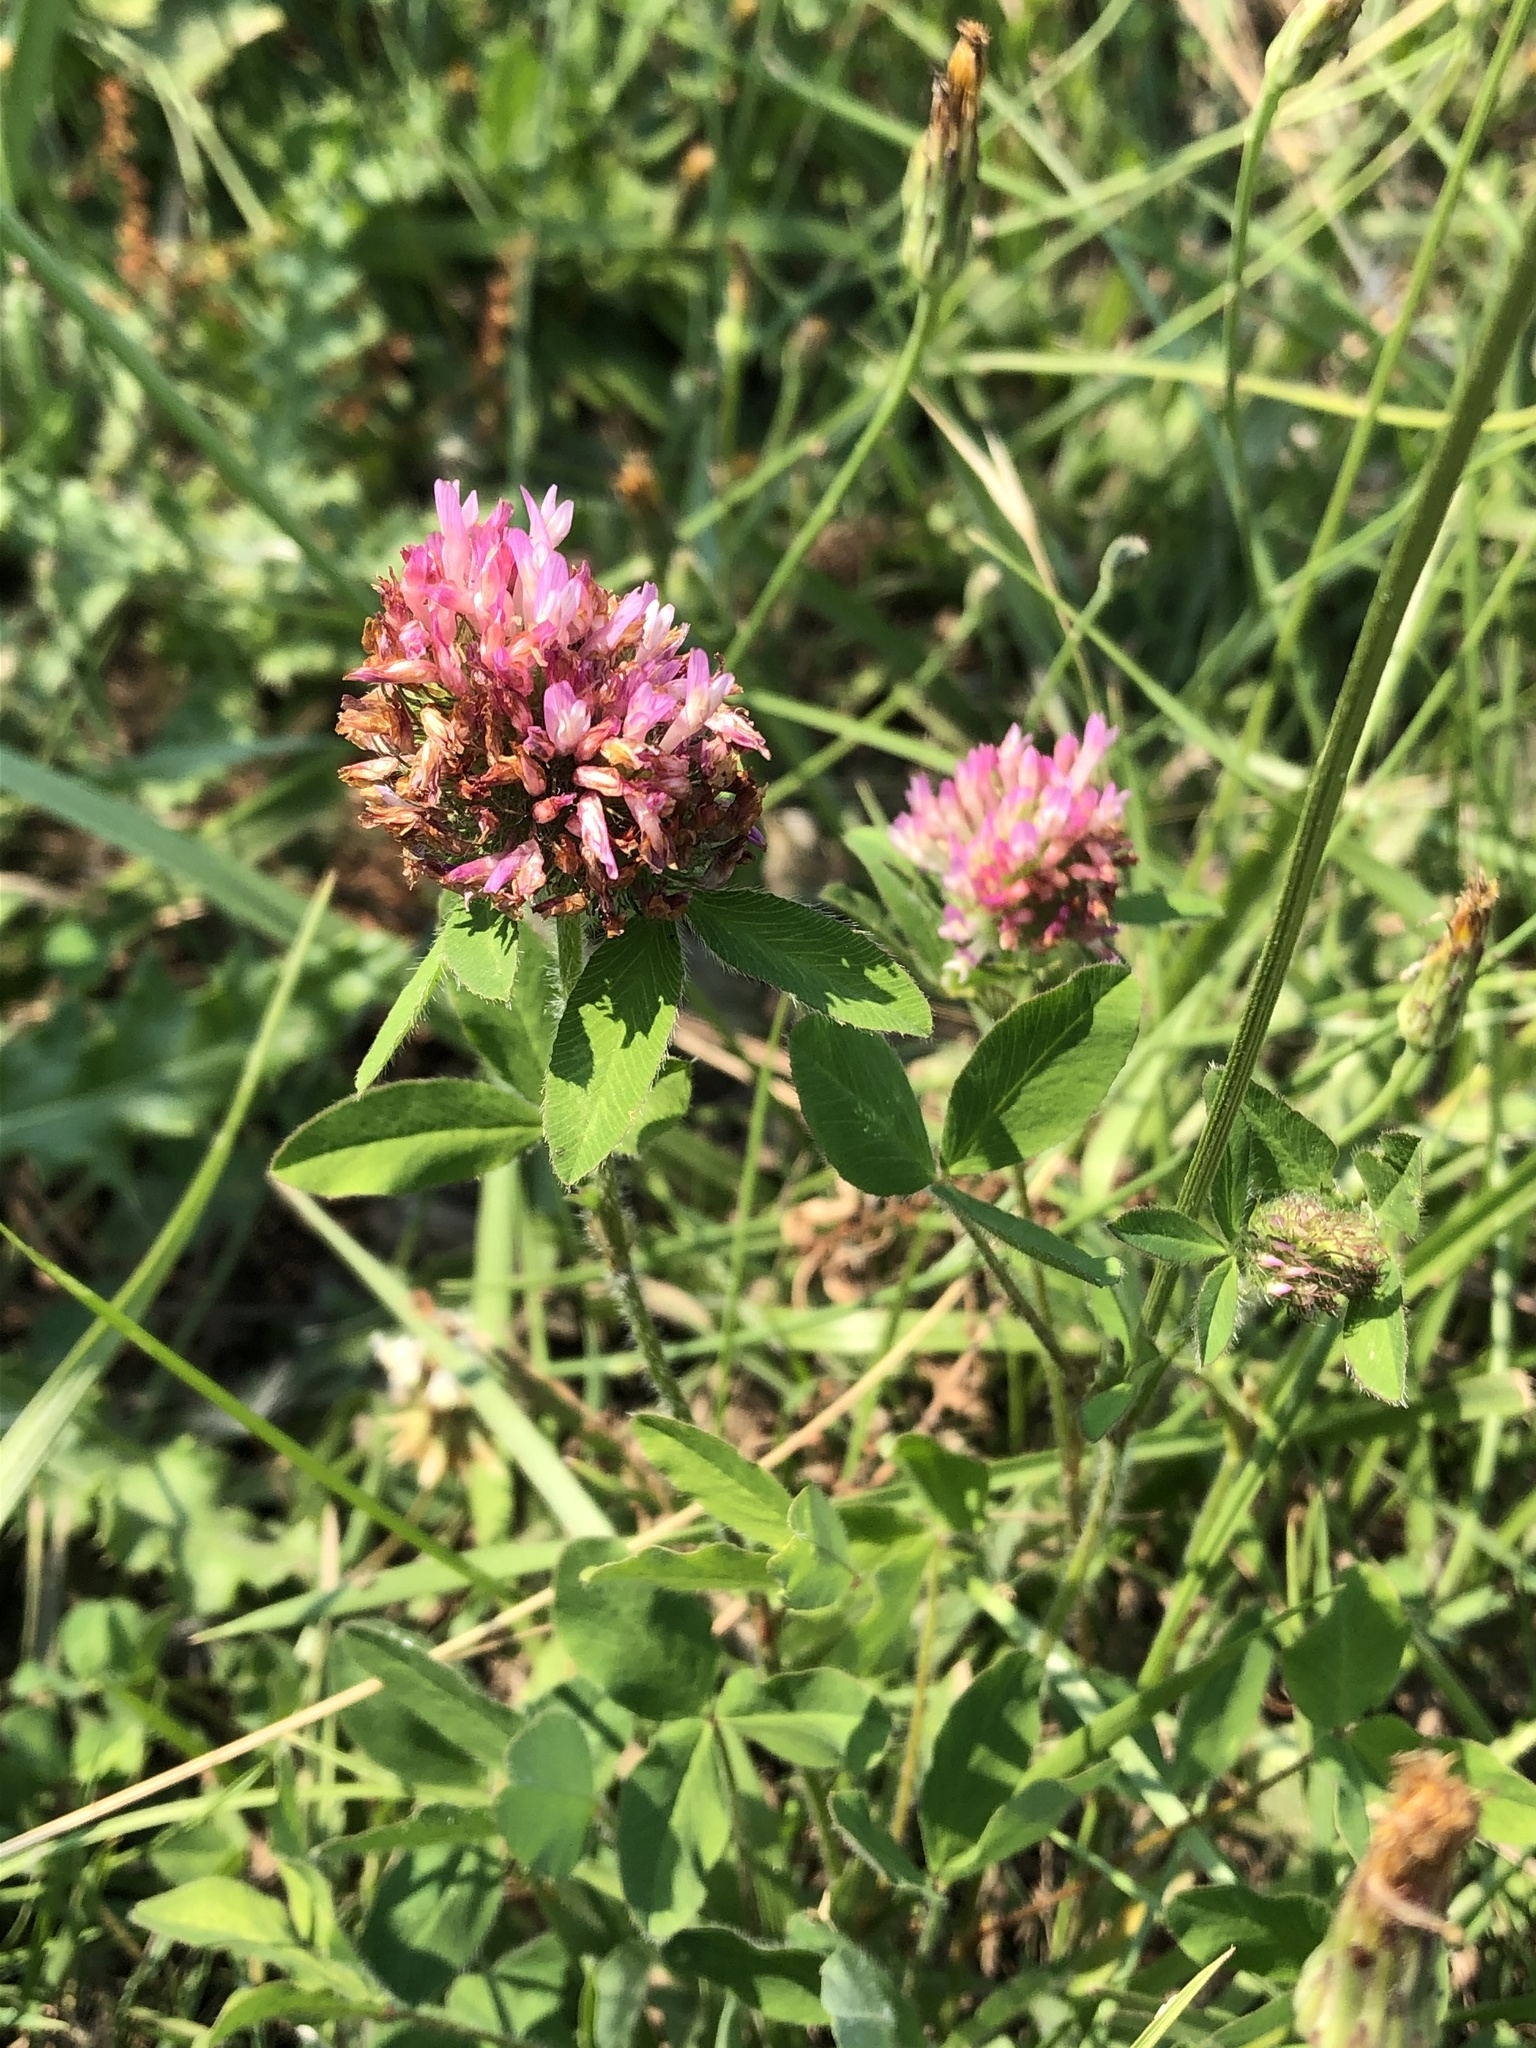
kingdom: Plantae
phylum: Tracheophyta
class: Magnoliopsida
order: Fabales
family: Fabaceae
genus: Trifolium
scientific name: Trifolium pratense
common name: Red clover
